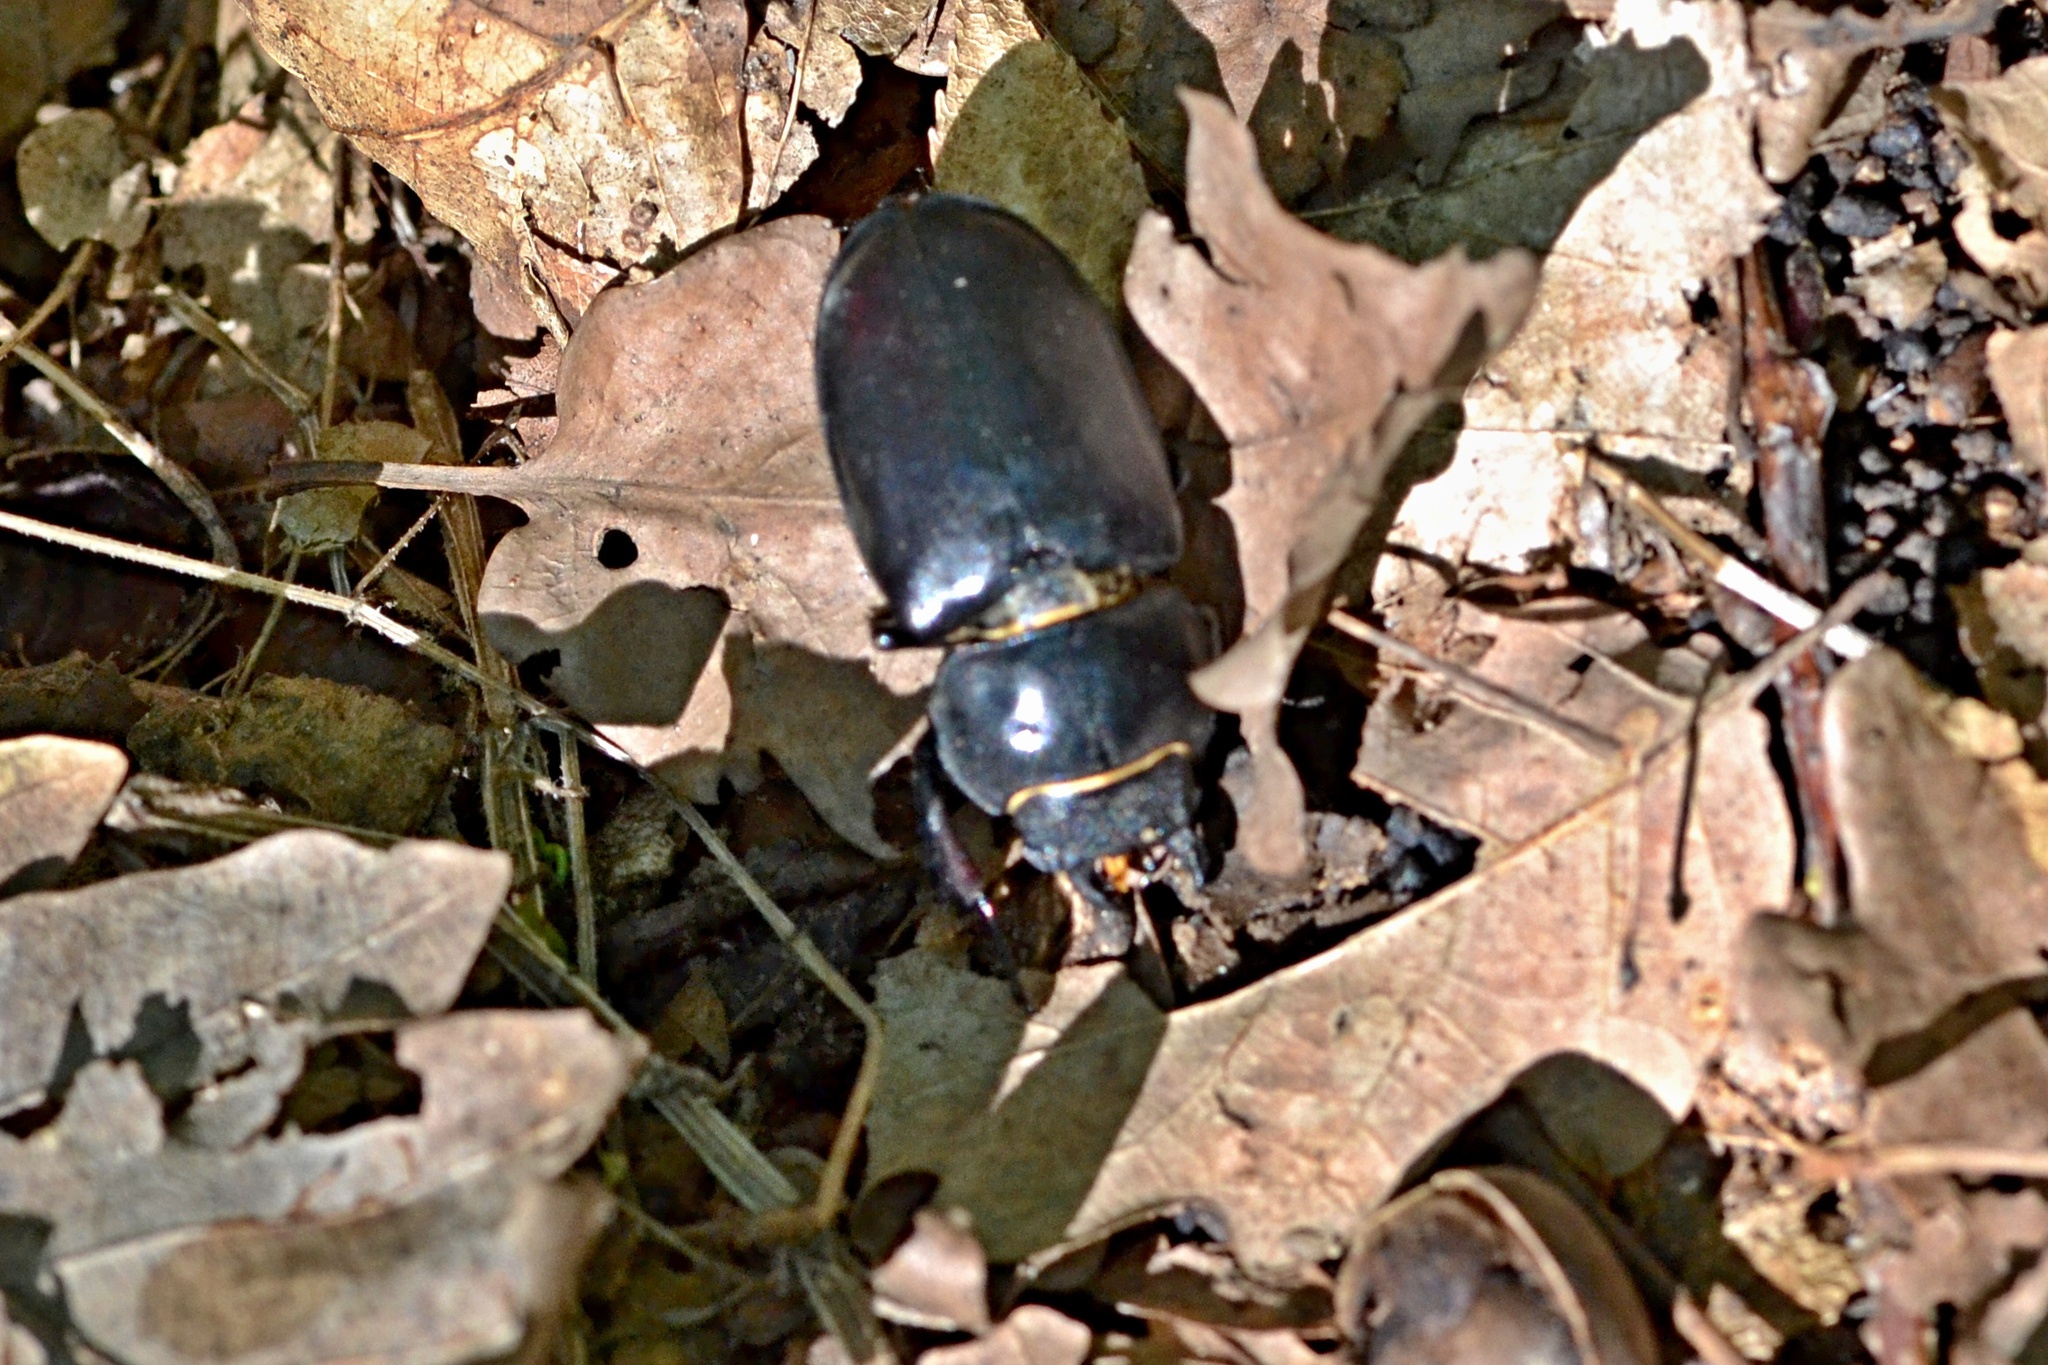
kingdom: Animalia
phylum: Arthropoda
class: Insecta
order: Coleoptera
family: Lucanidae
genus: Lucanus
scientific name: Lucanus cervus
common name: Stag beetle
